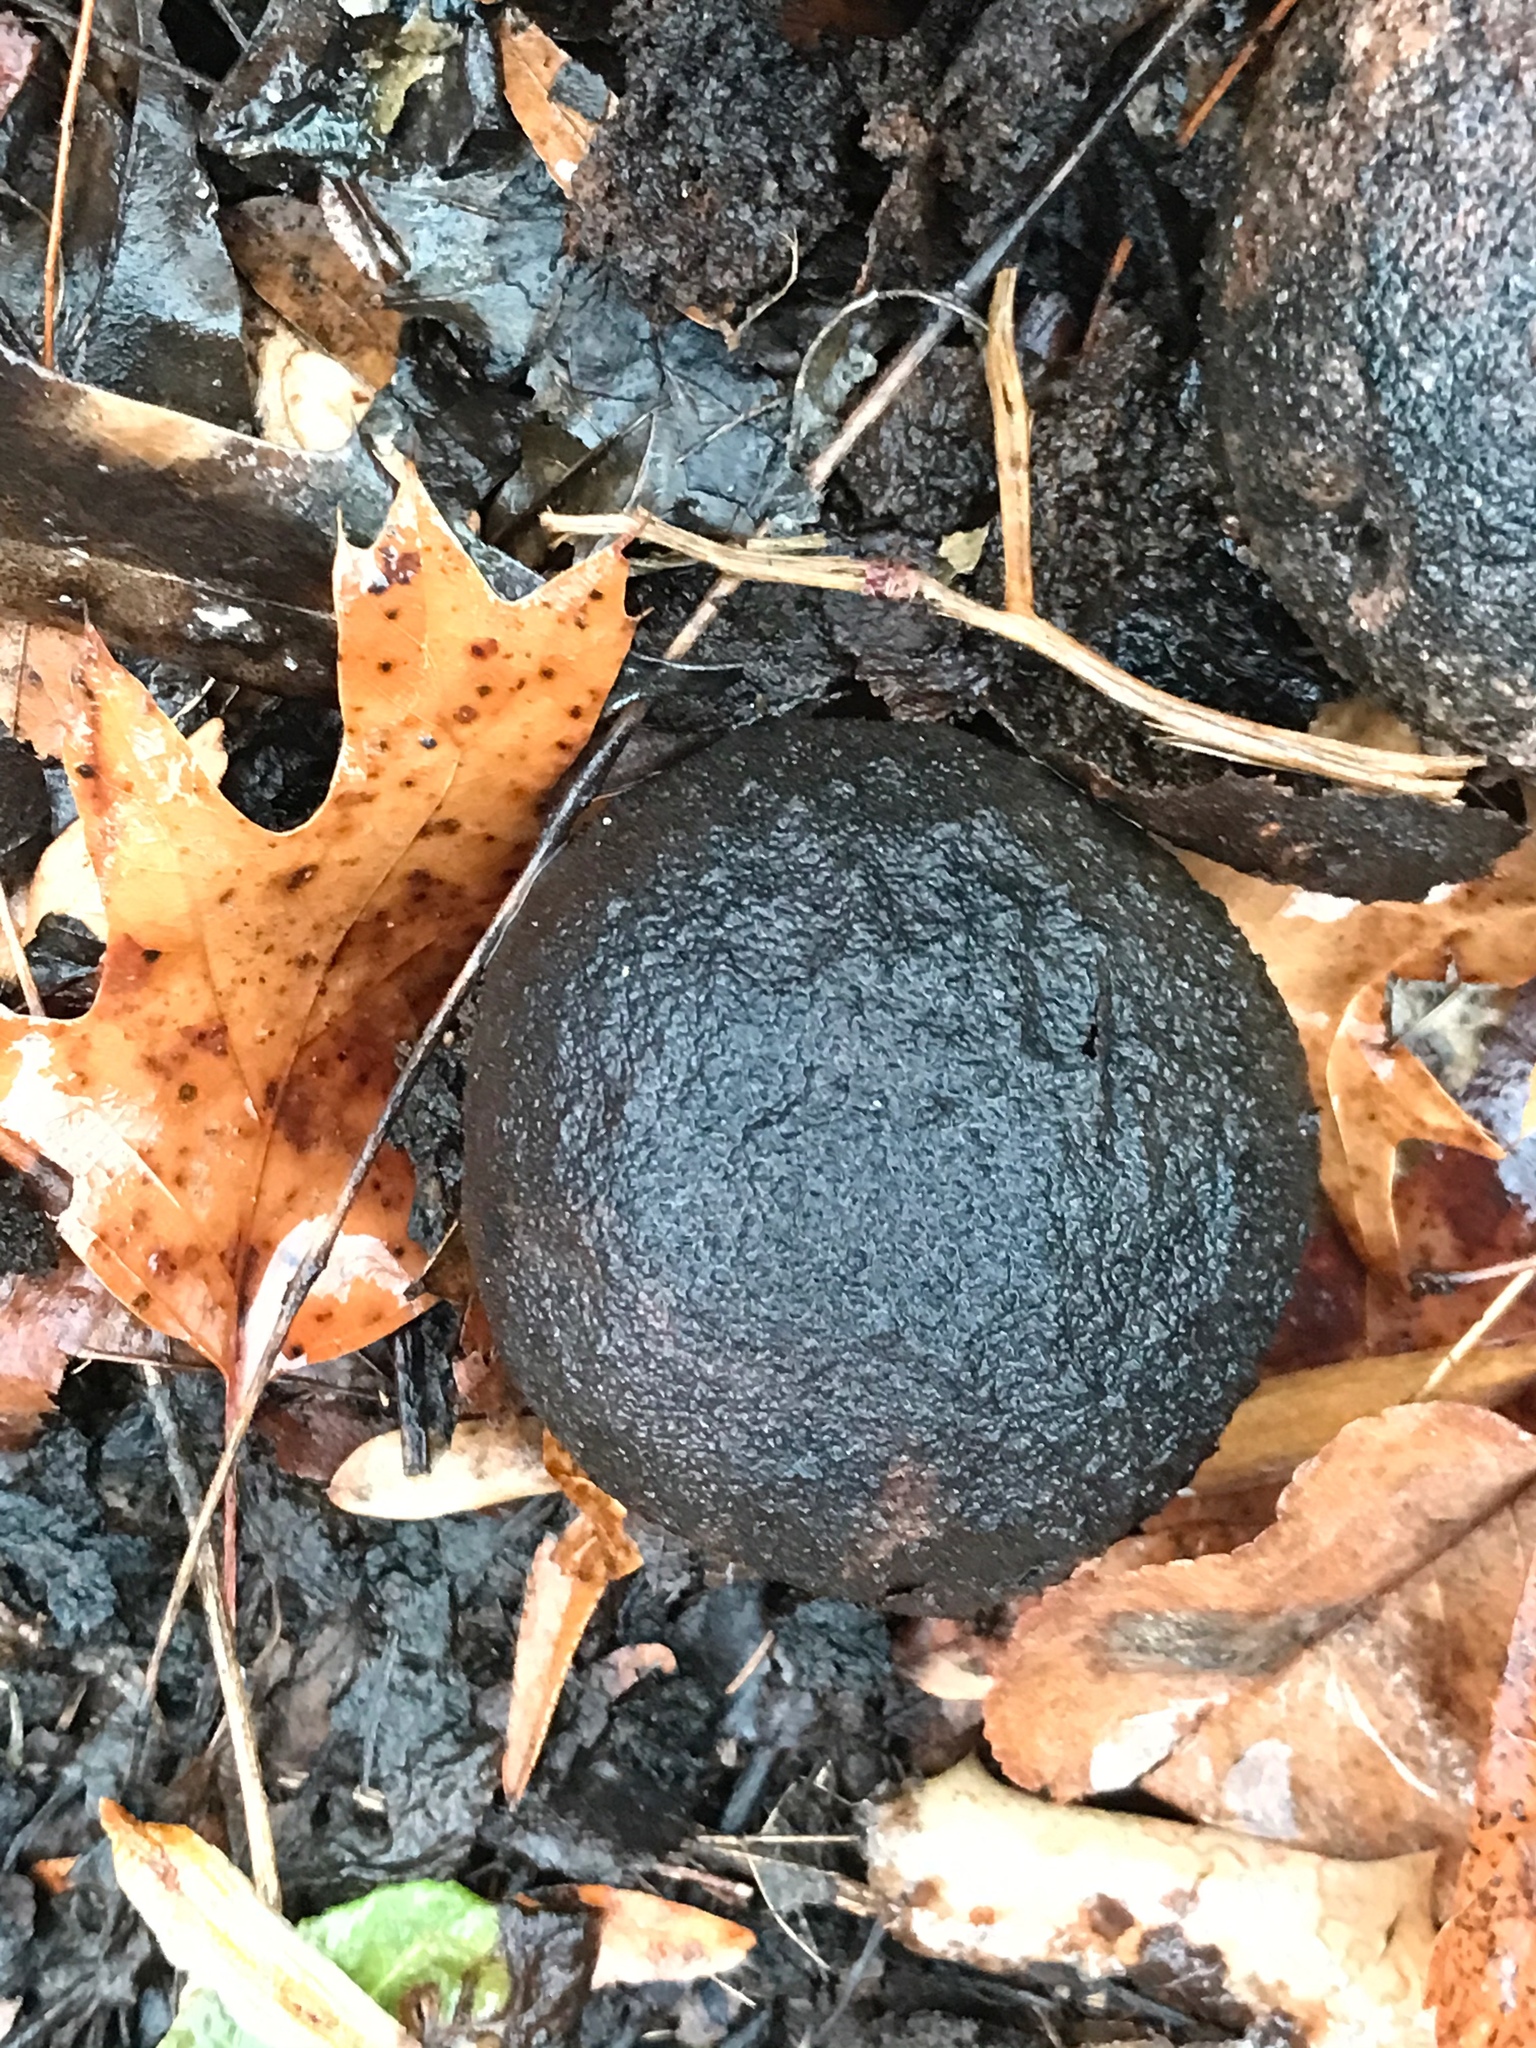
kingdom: Plantae
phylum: Tracheophyta
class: Magnoliopsida
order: Fagales
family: Juglandaceae
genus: Juglans
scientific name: Juglans nigra
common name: Black walnut
